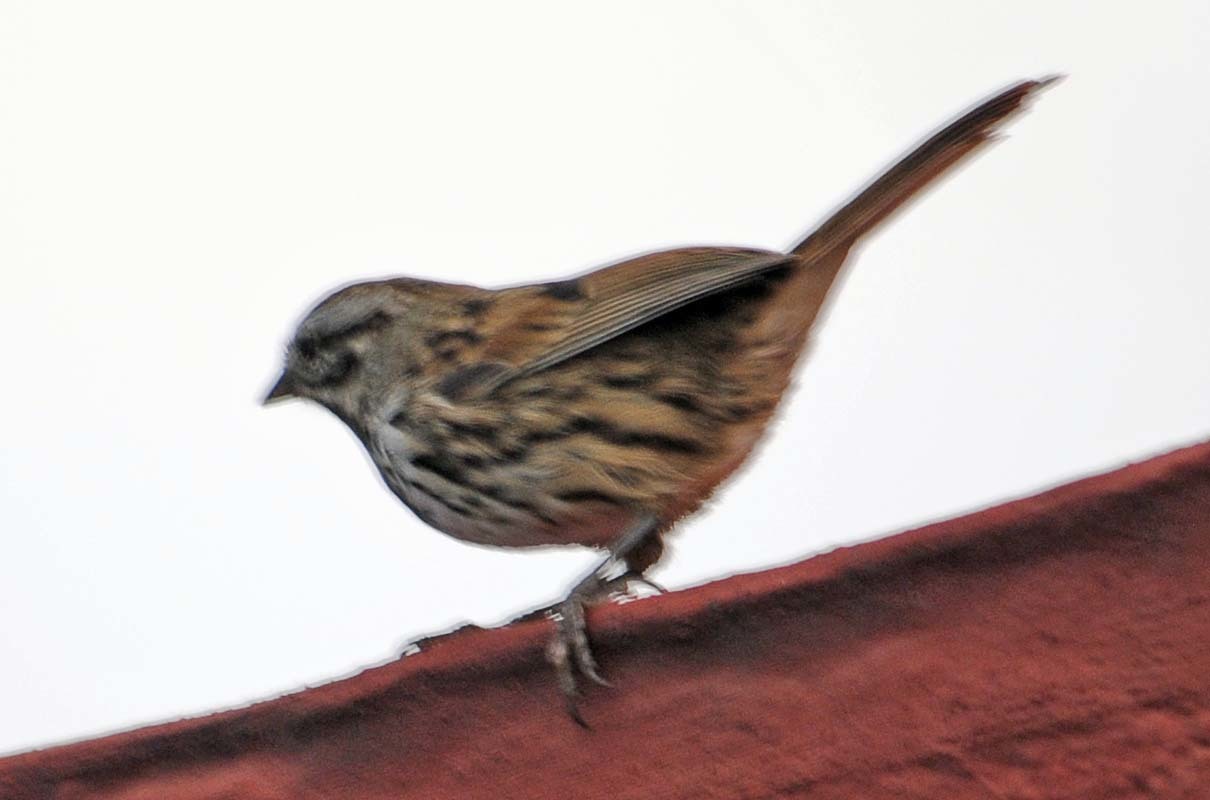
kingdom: Animalia
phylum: Chordata
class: Aves
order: Passeriformes
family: Passerellidae
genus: Melospiza
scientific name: Melospiza melodia
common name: Song sparrow
